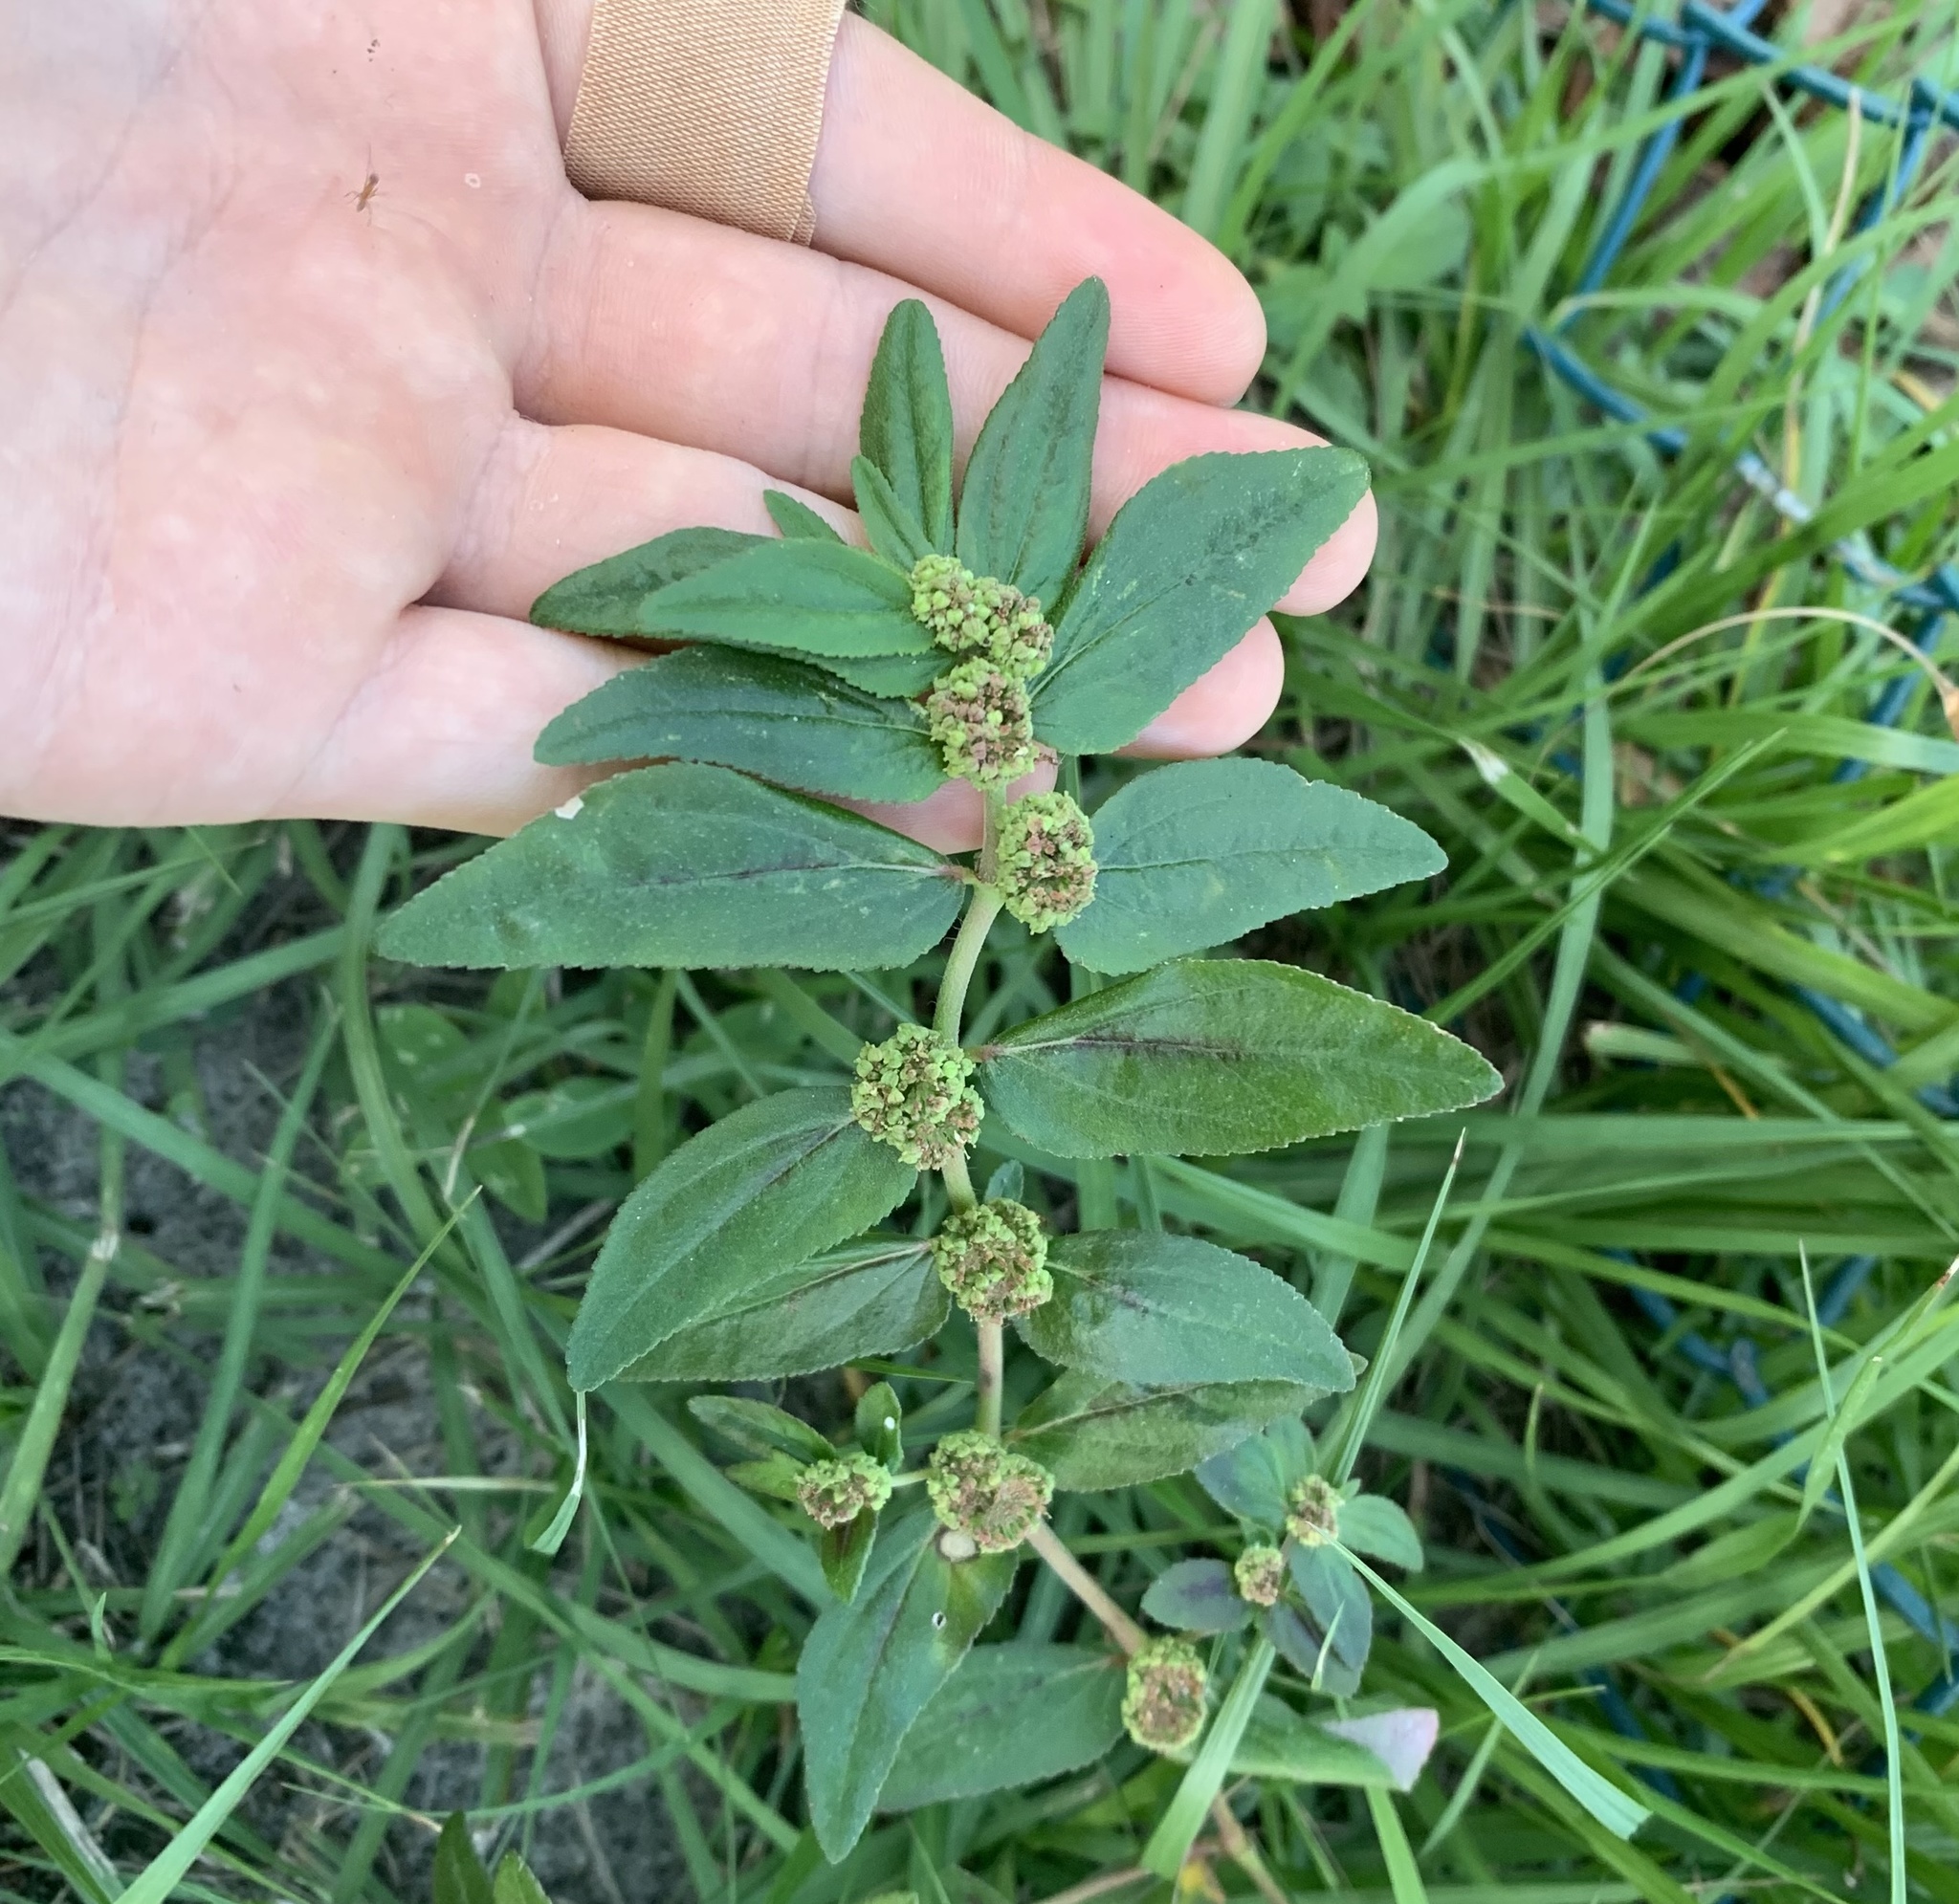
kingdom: Plantae
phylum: Tracheophyta
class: Magnoliopsida
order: Malpighiales
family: Euphorbiaceae
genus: Euphorbia
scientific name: Euphorbia hirta
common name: Pillpod sandmat
